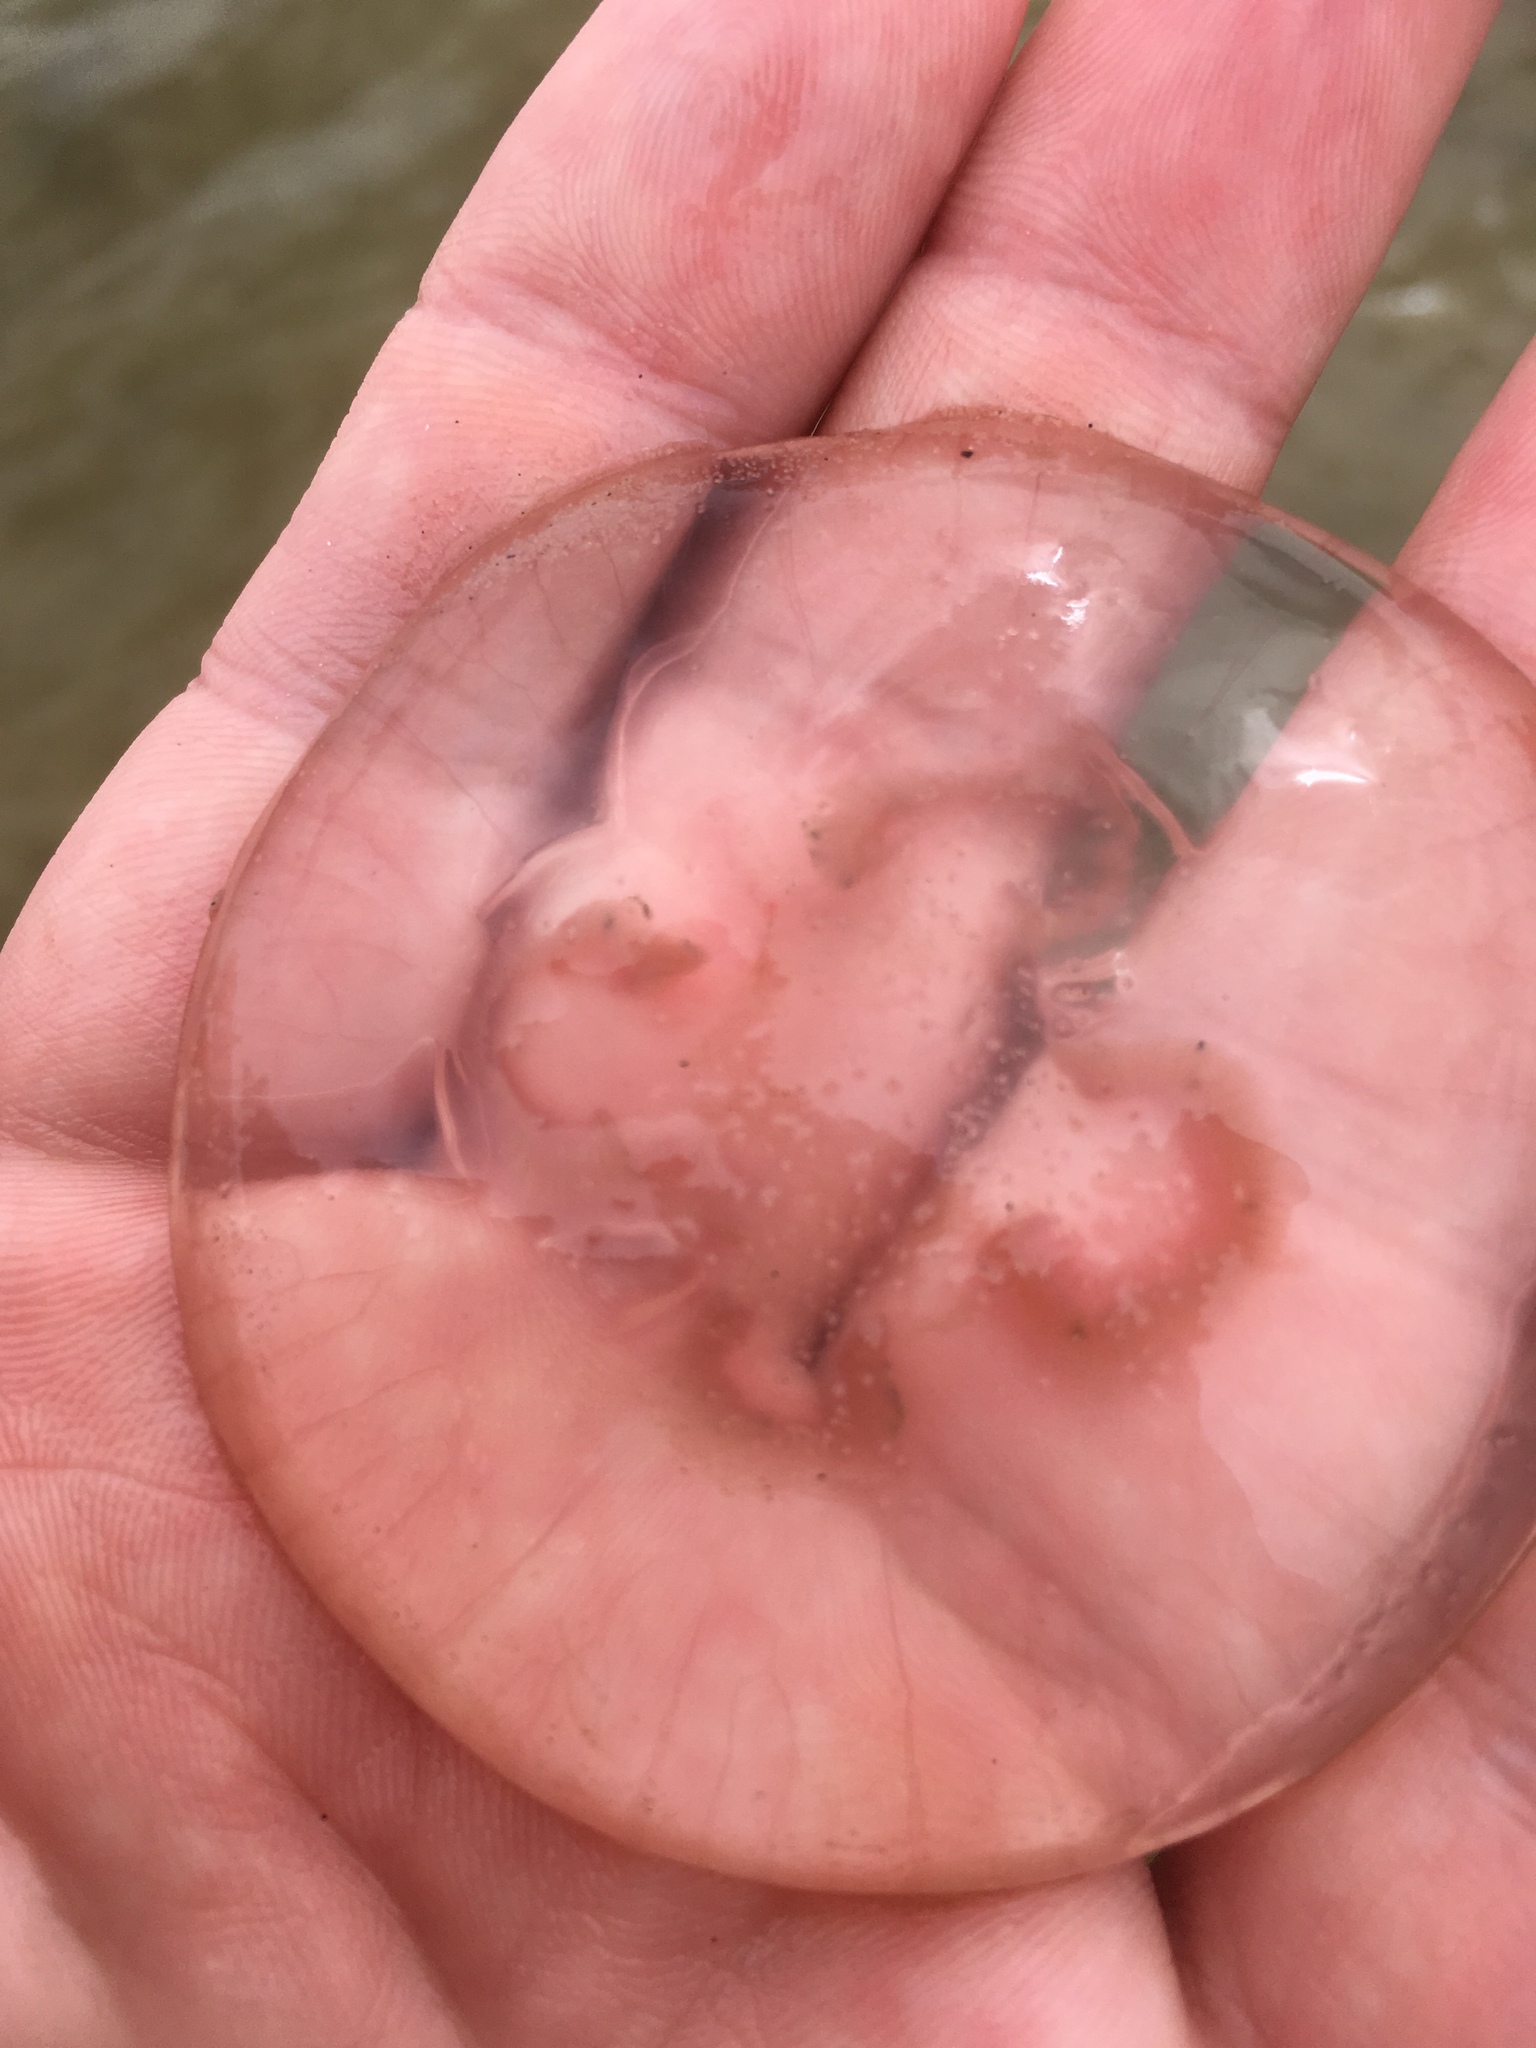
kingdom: Animalia
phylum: Cnidaria
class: Scyphozoa
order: Semaeostomeae
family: Ulmaridae
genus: Aurelia
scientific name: Aurelia aurita
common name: Moon jellyfish
